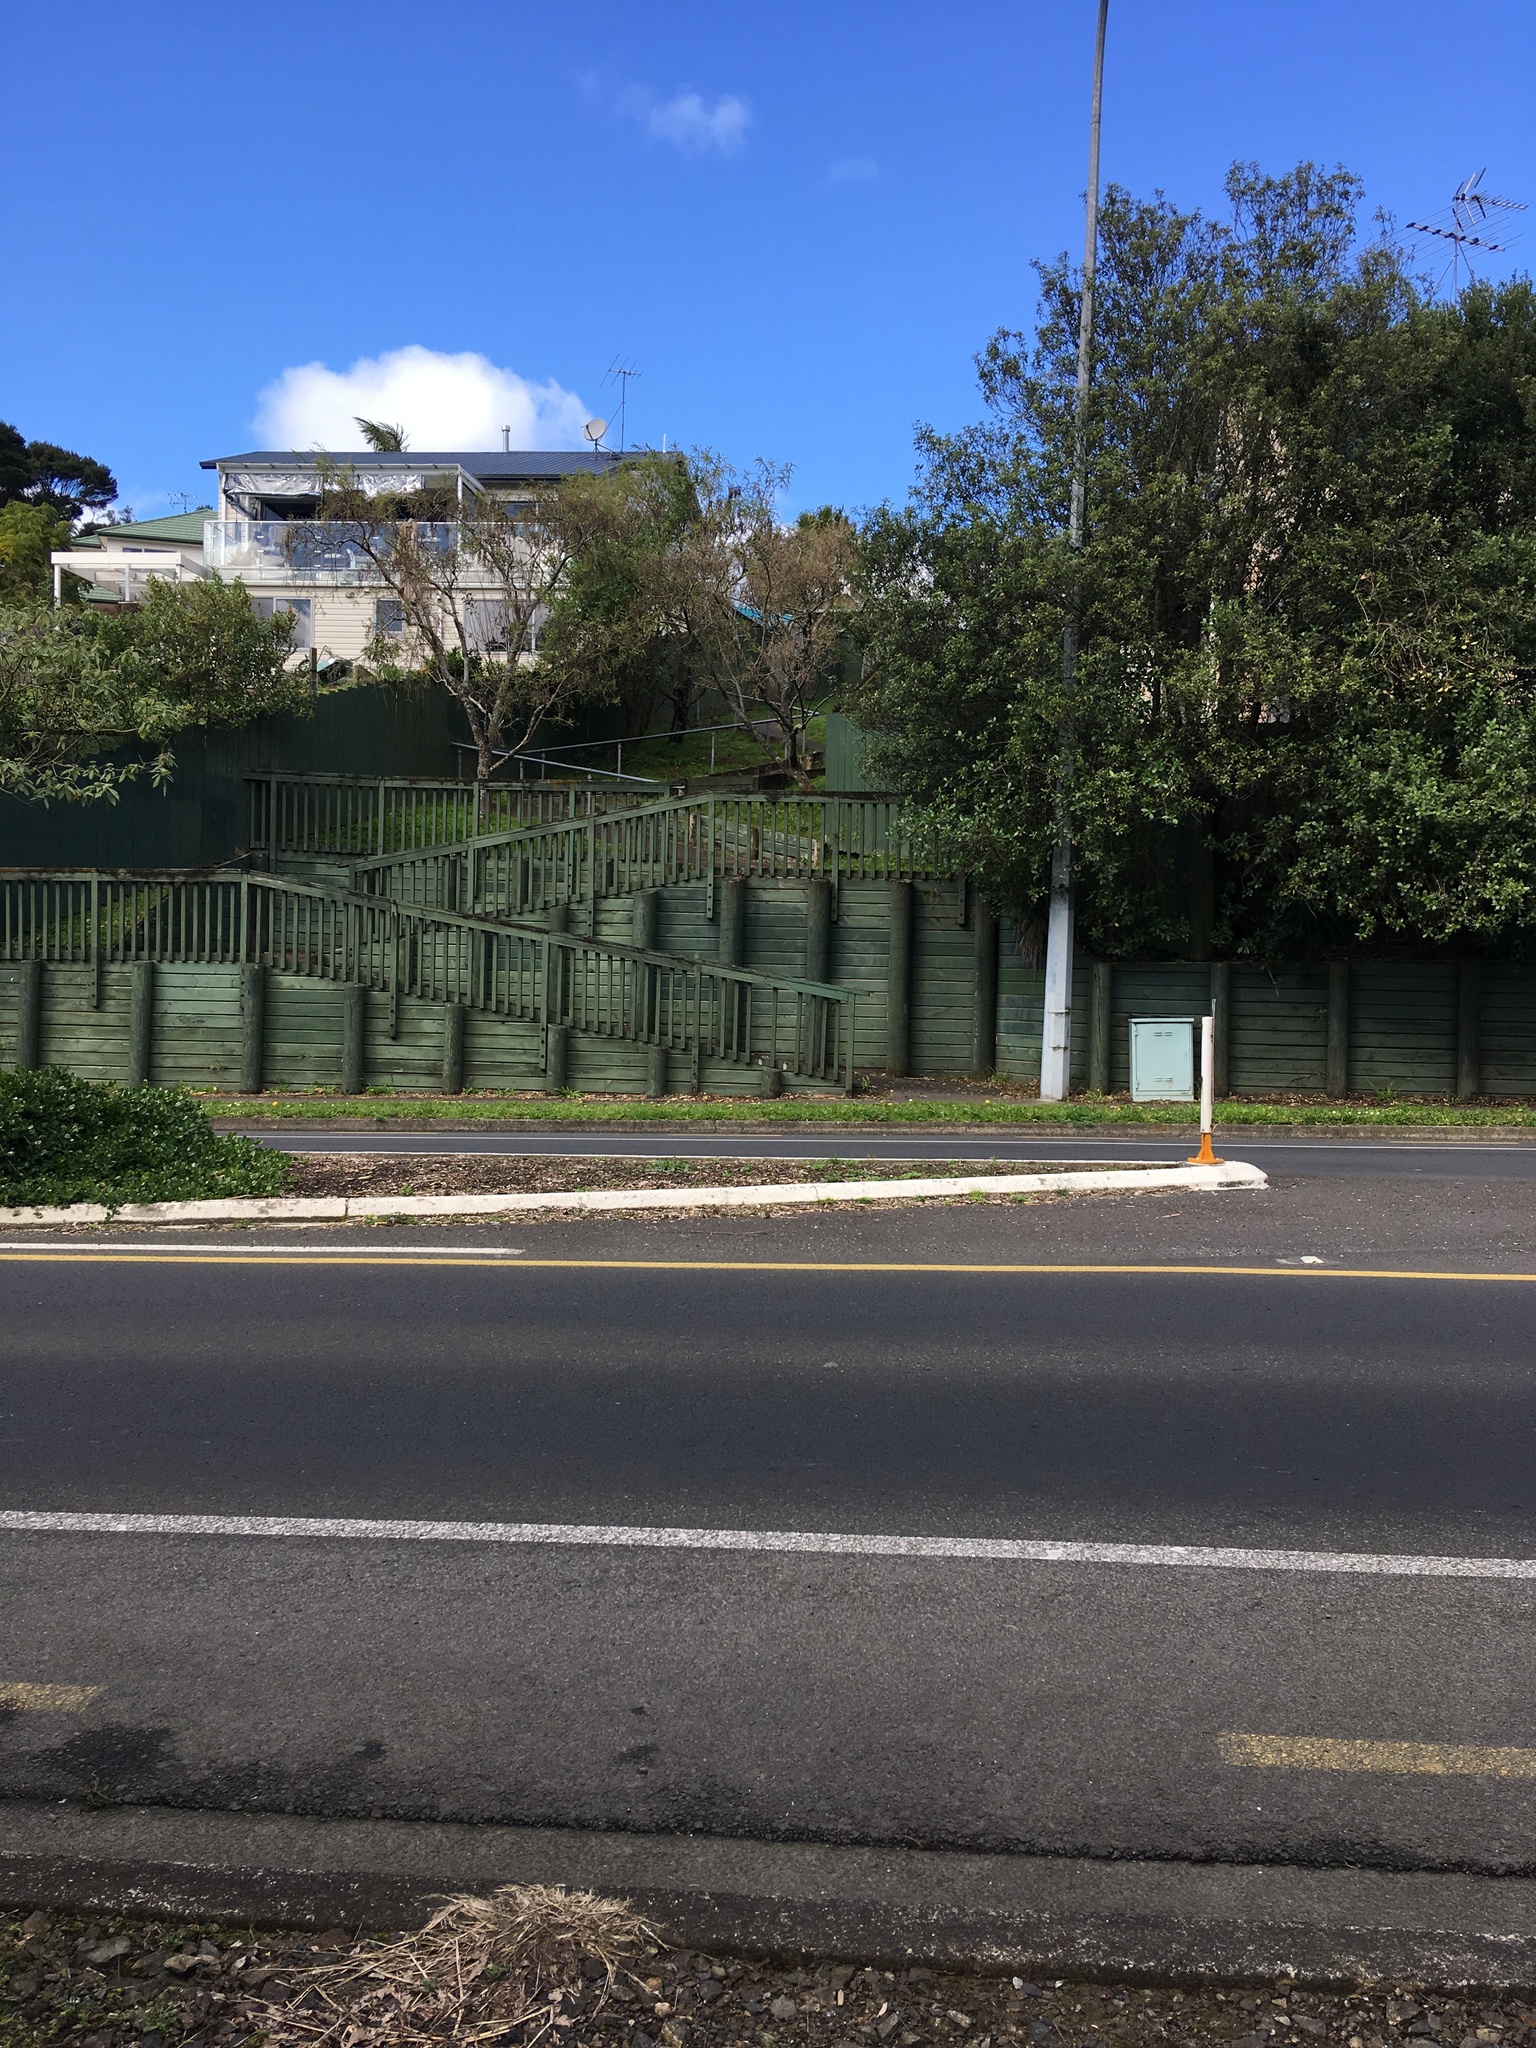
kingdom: Plantae
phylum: Tracheophyta
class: Magnoliopsida
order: Apiales
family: Pittosporaceae
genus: Pittosporum
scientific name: Pittosporum tenuifolium
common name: Kohuhu
